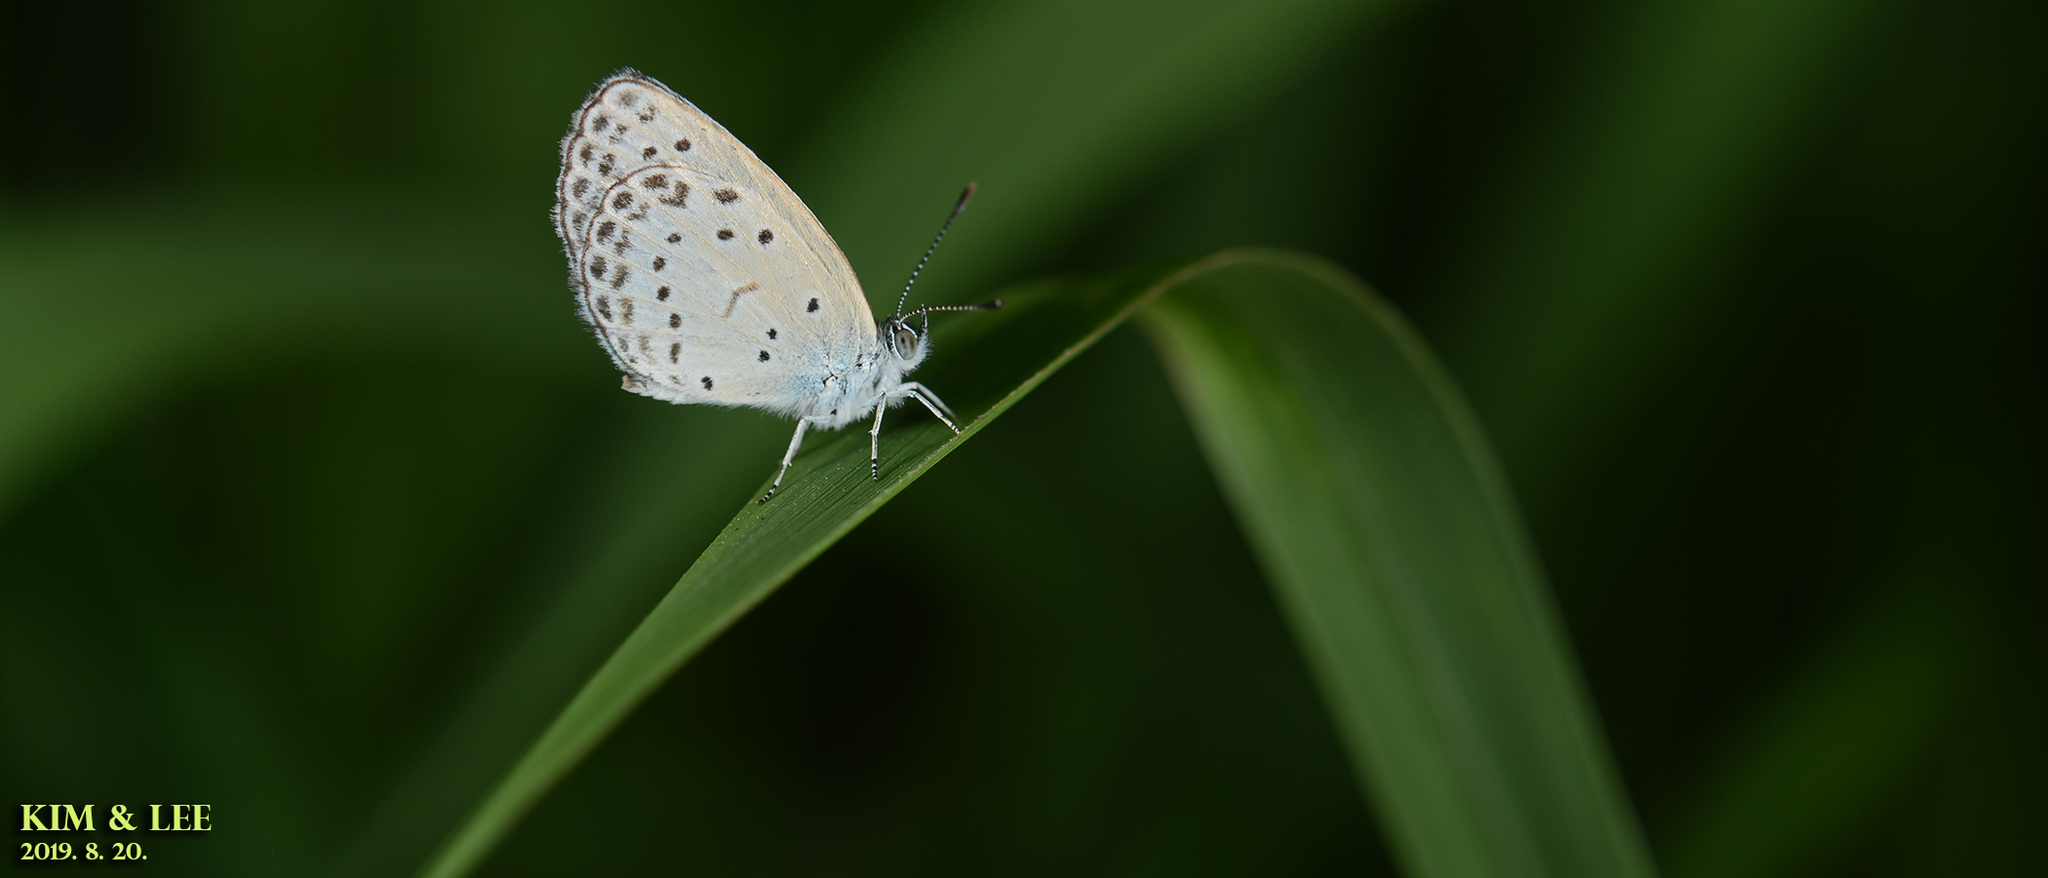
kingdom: Animalia
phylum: Arthropoda
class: Insecta
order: Lepidoptera
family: Lycaenidae
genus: Pseudozizeeria
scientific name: Pseudozizeeria maha
